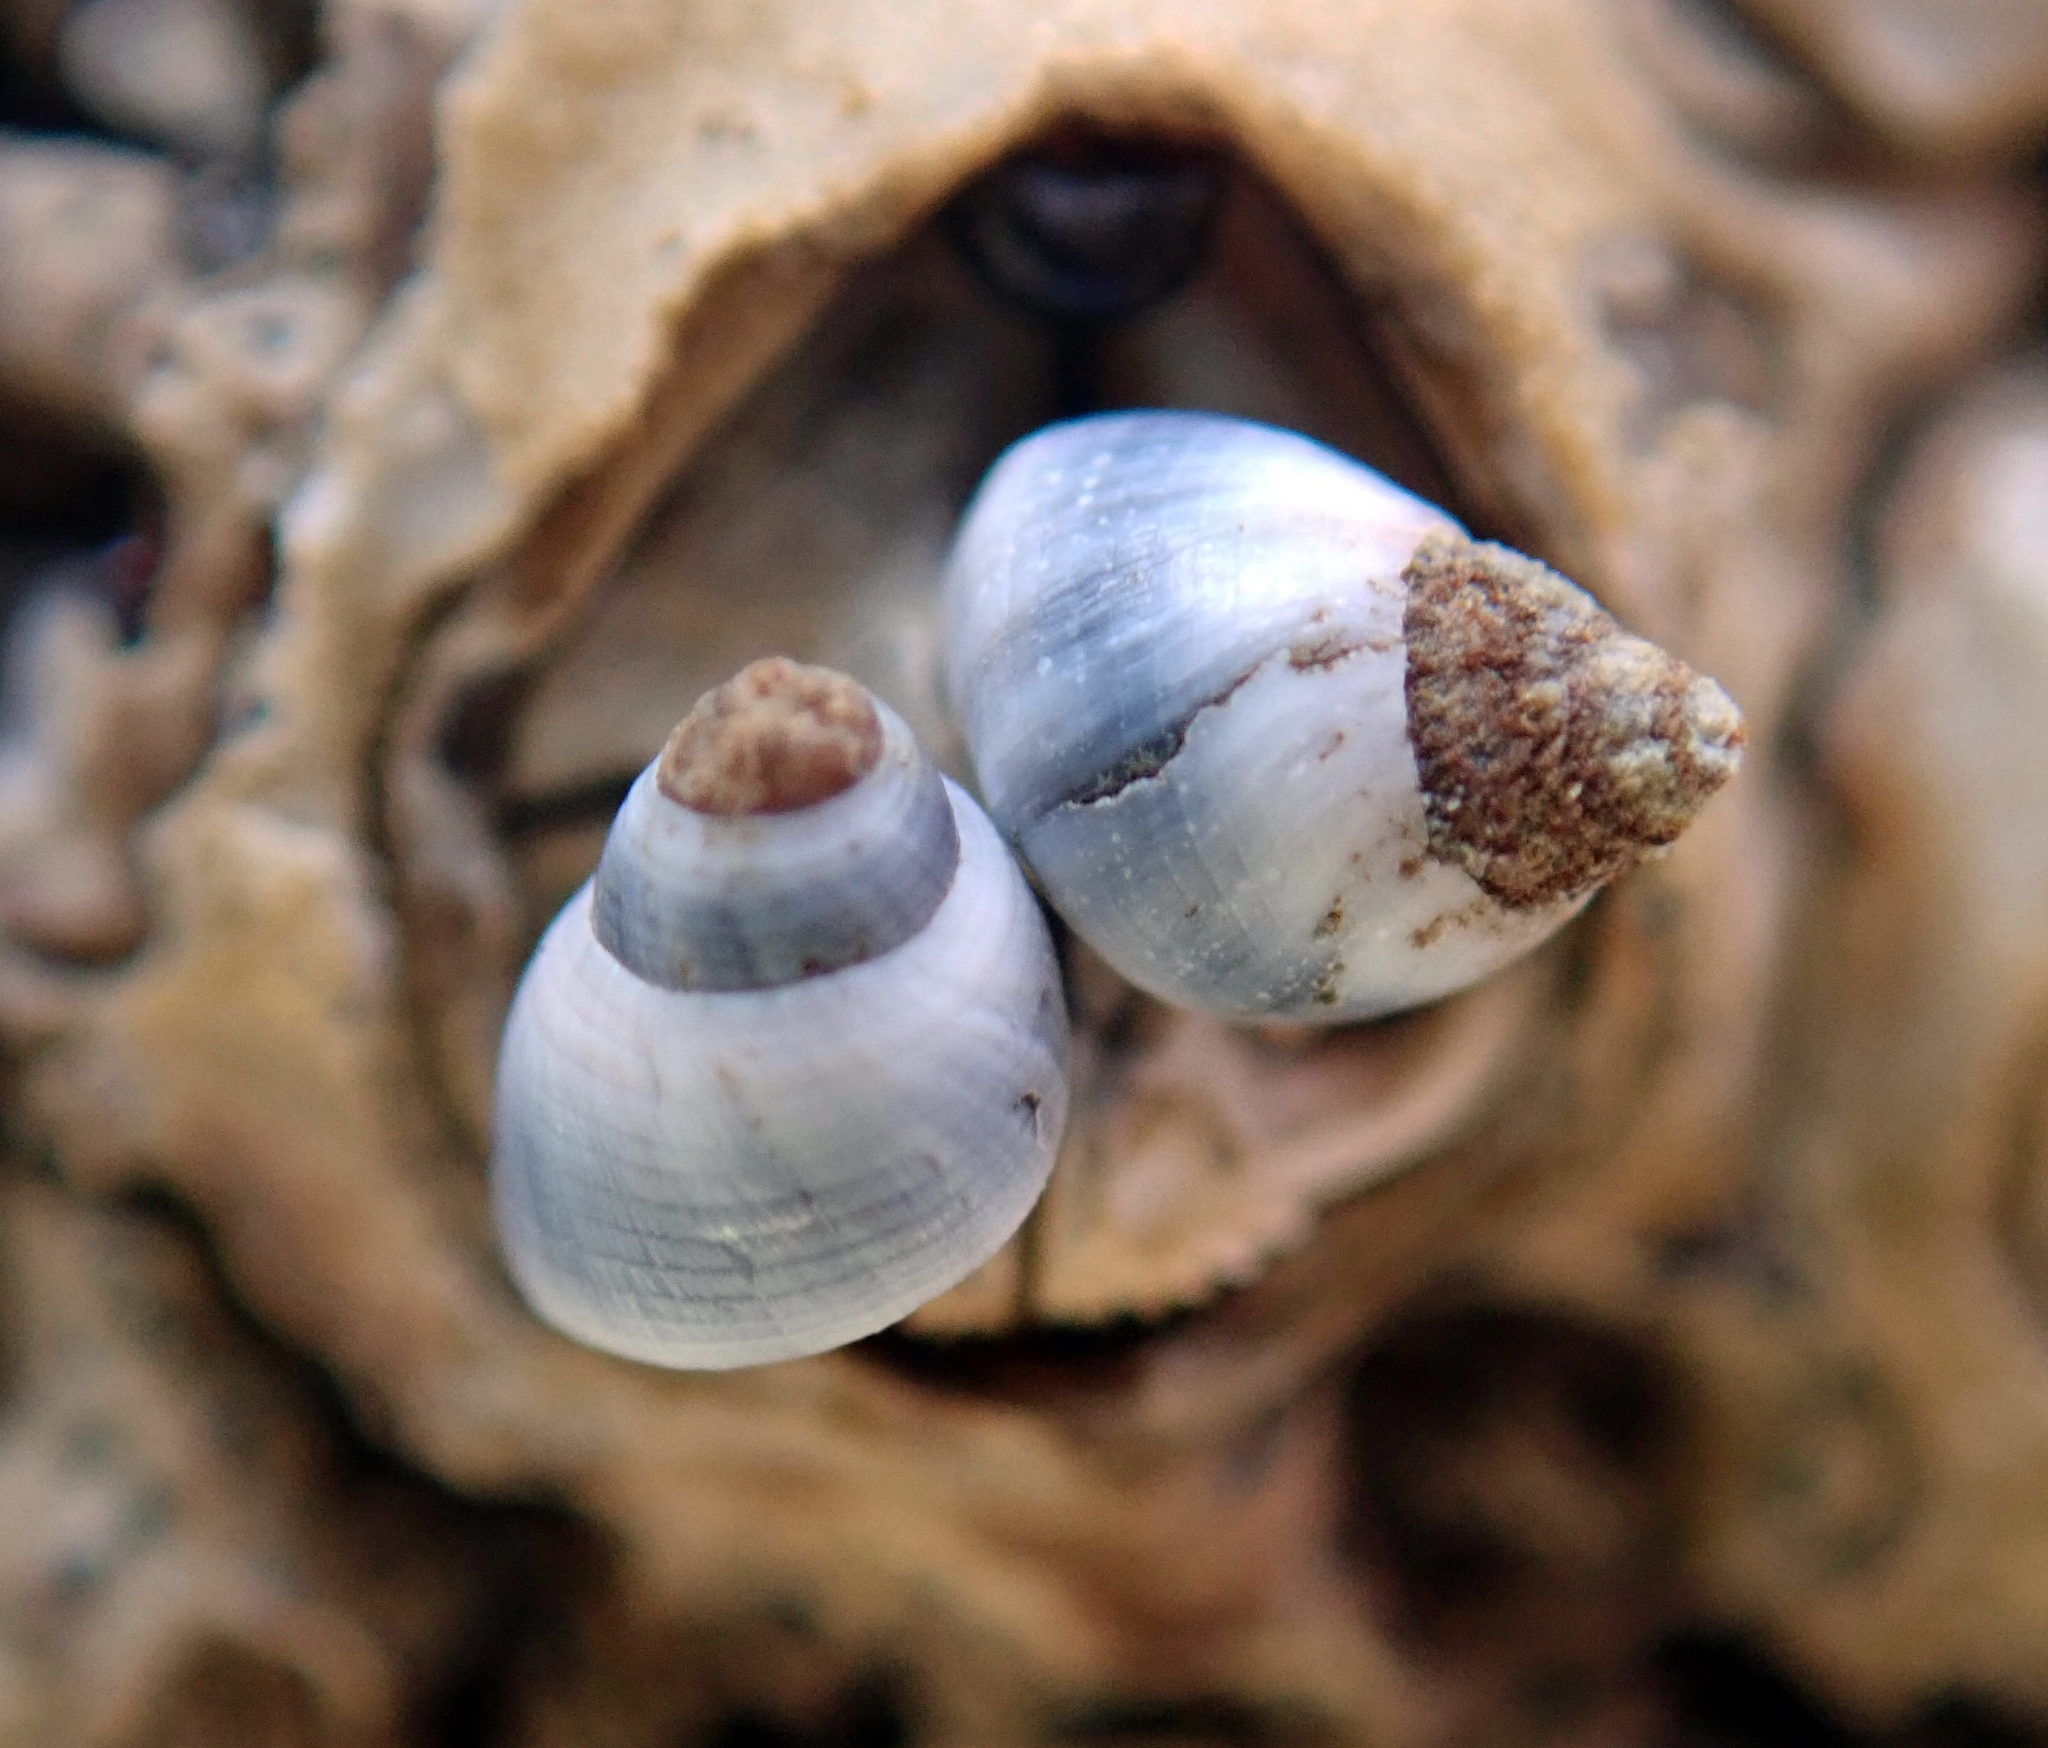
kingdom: Animalia
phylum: Mollusca
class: Gastropoda
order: Littorinimorpha
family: Littorinidae
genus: Austrolittorina
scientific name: Austrolittorina antipodum
